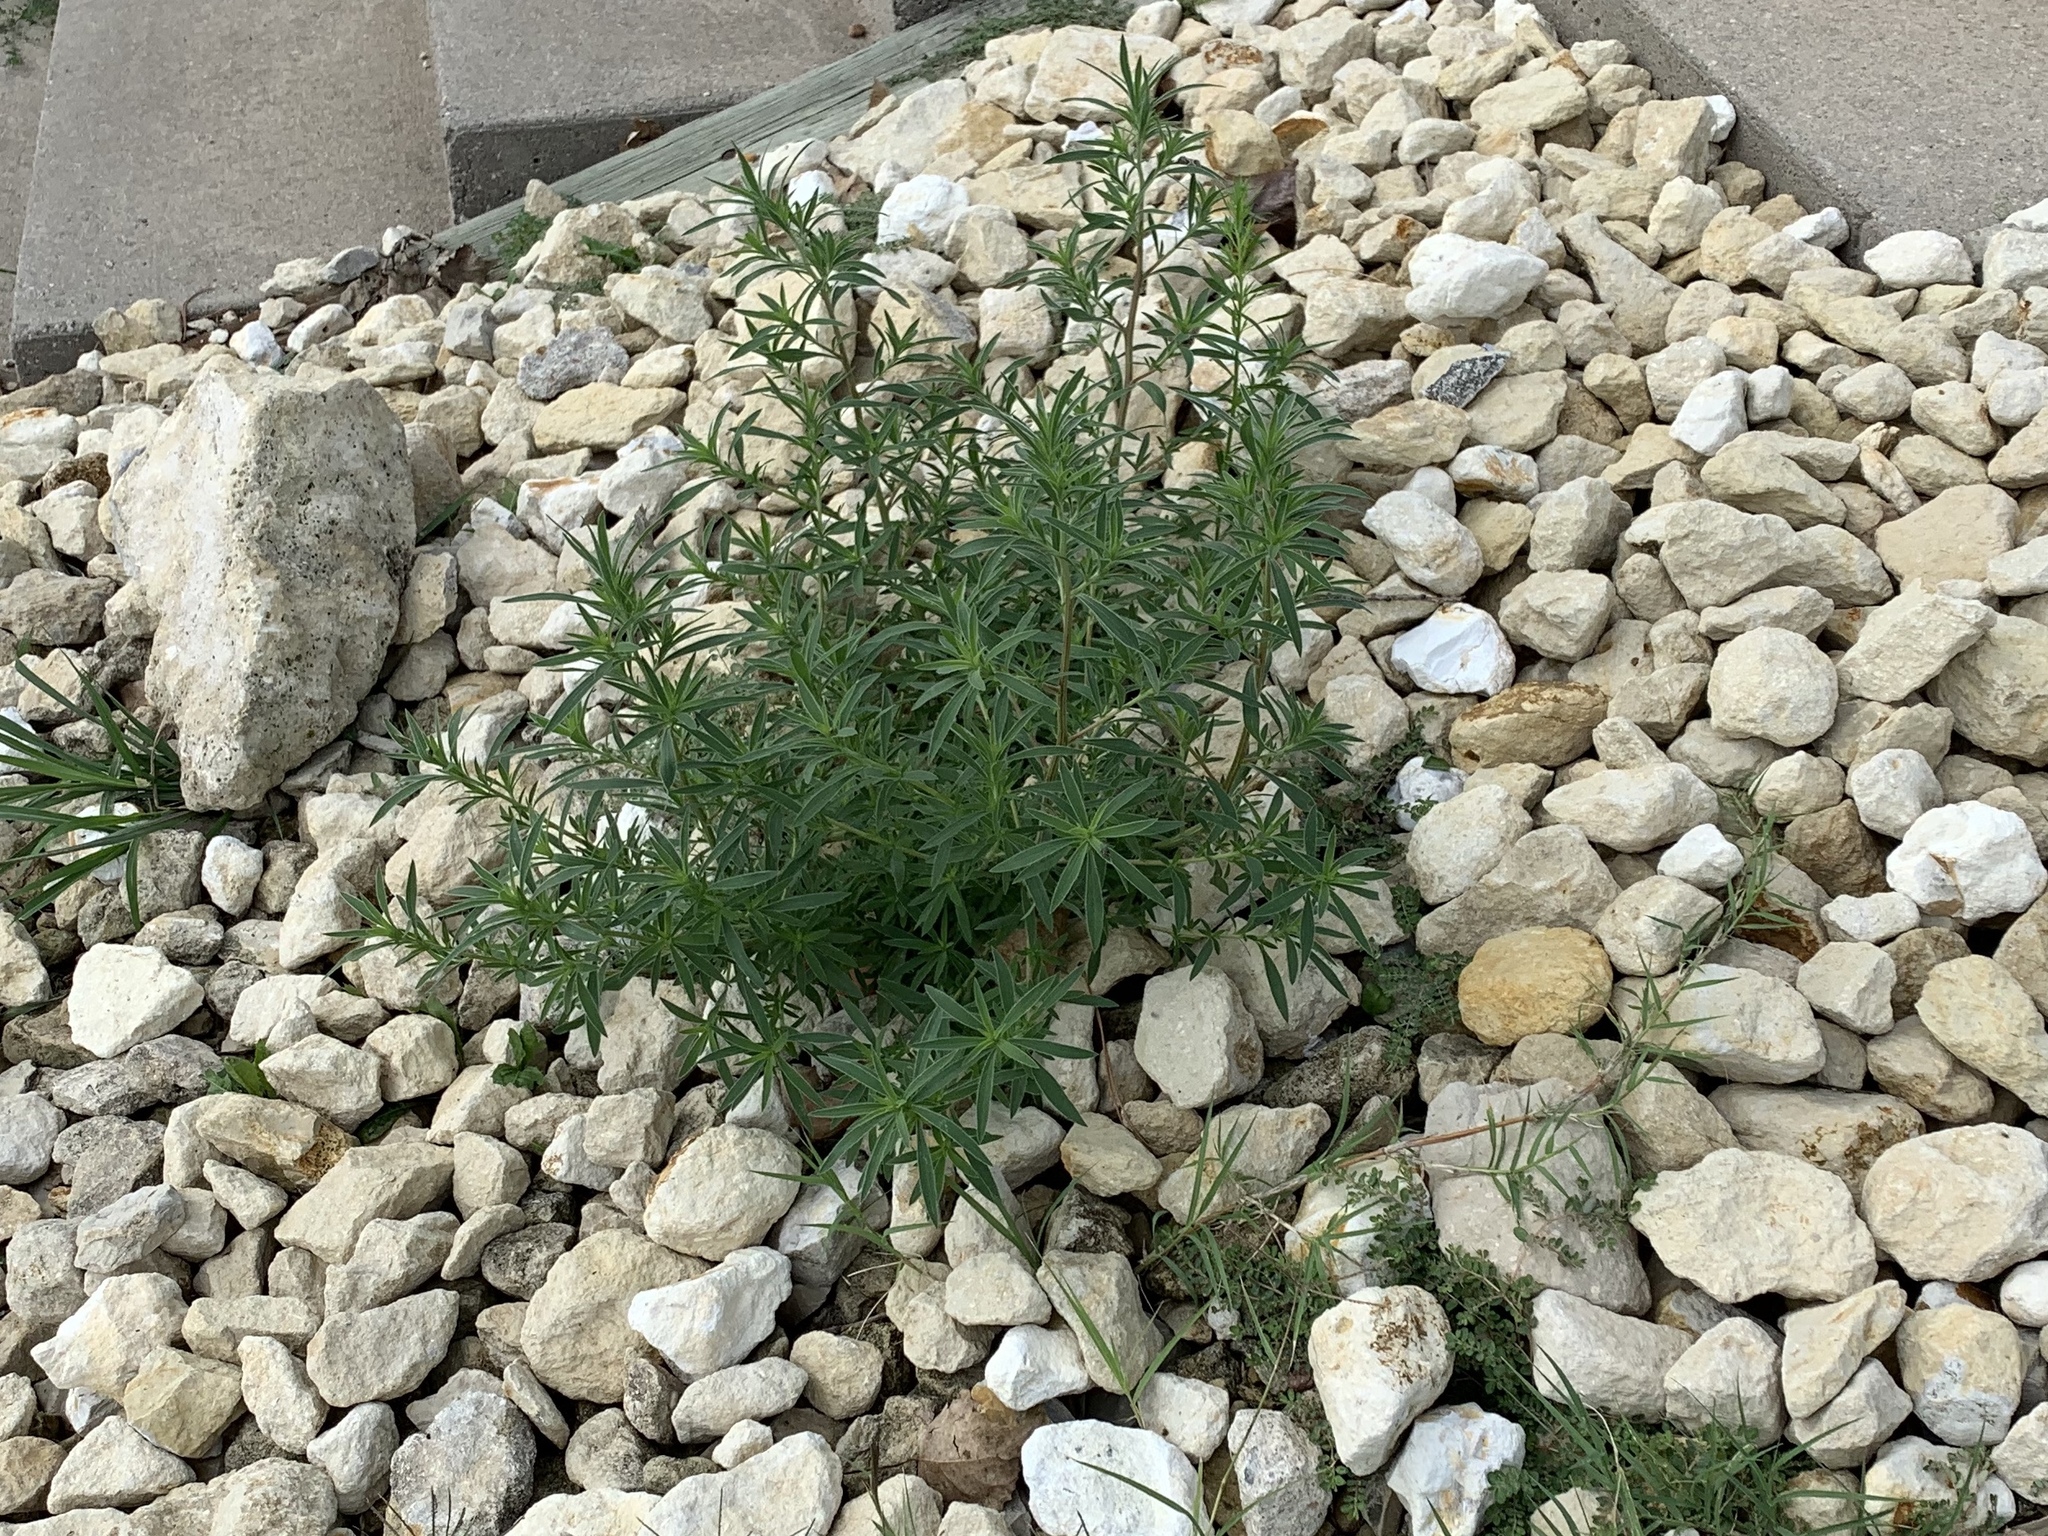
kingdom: Plantae
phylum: Tracheophyta
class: Magnoliopsida
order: Caryophyllales
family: Amaranthaceae
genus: Bassia
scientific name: Bassia scoparia
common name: Belvedere
